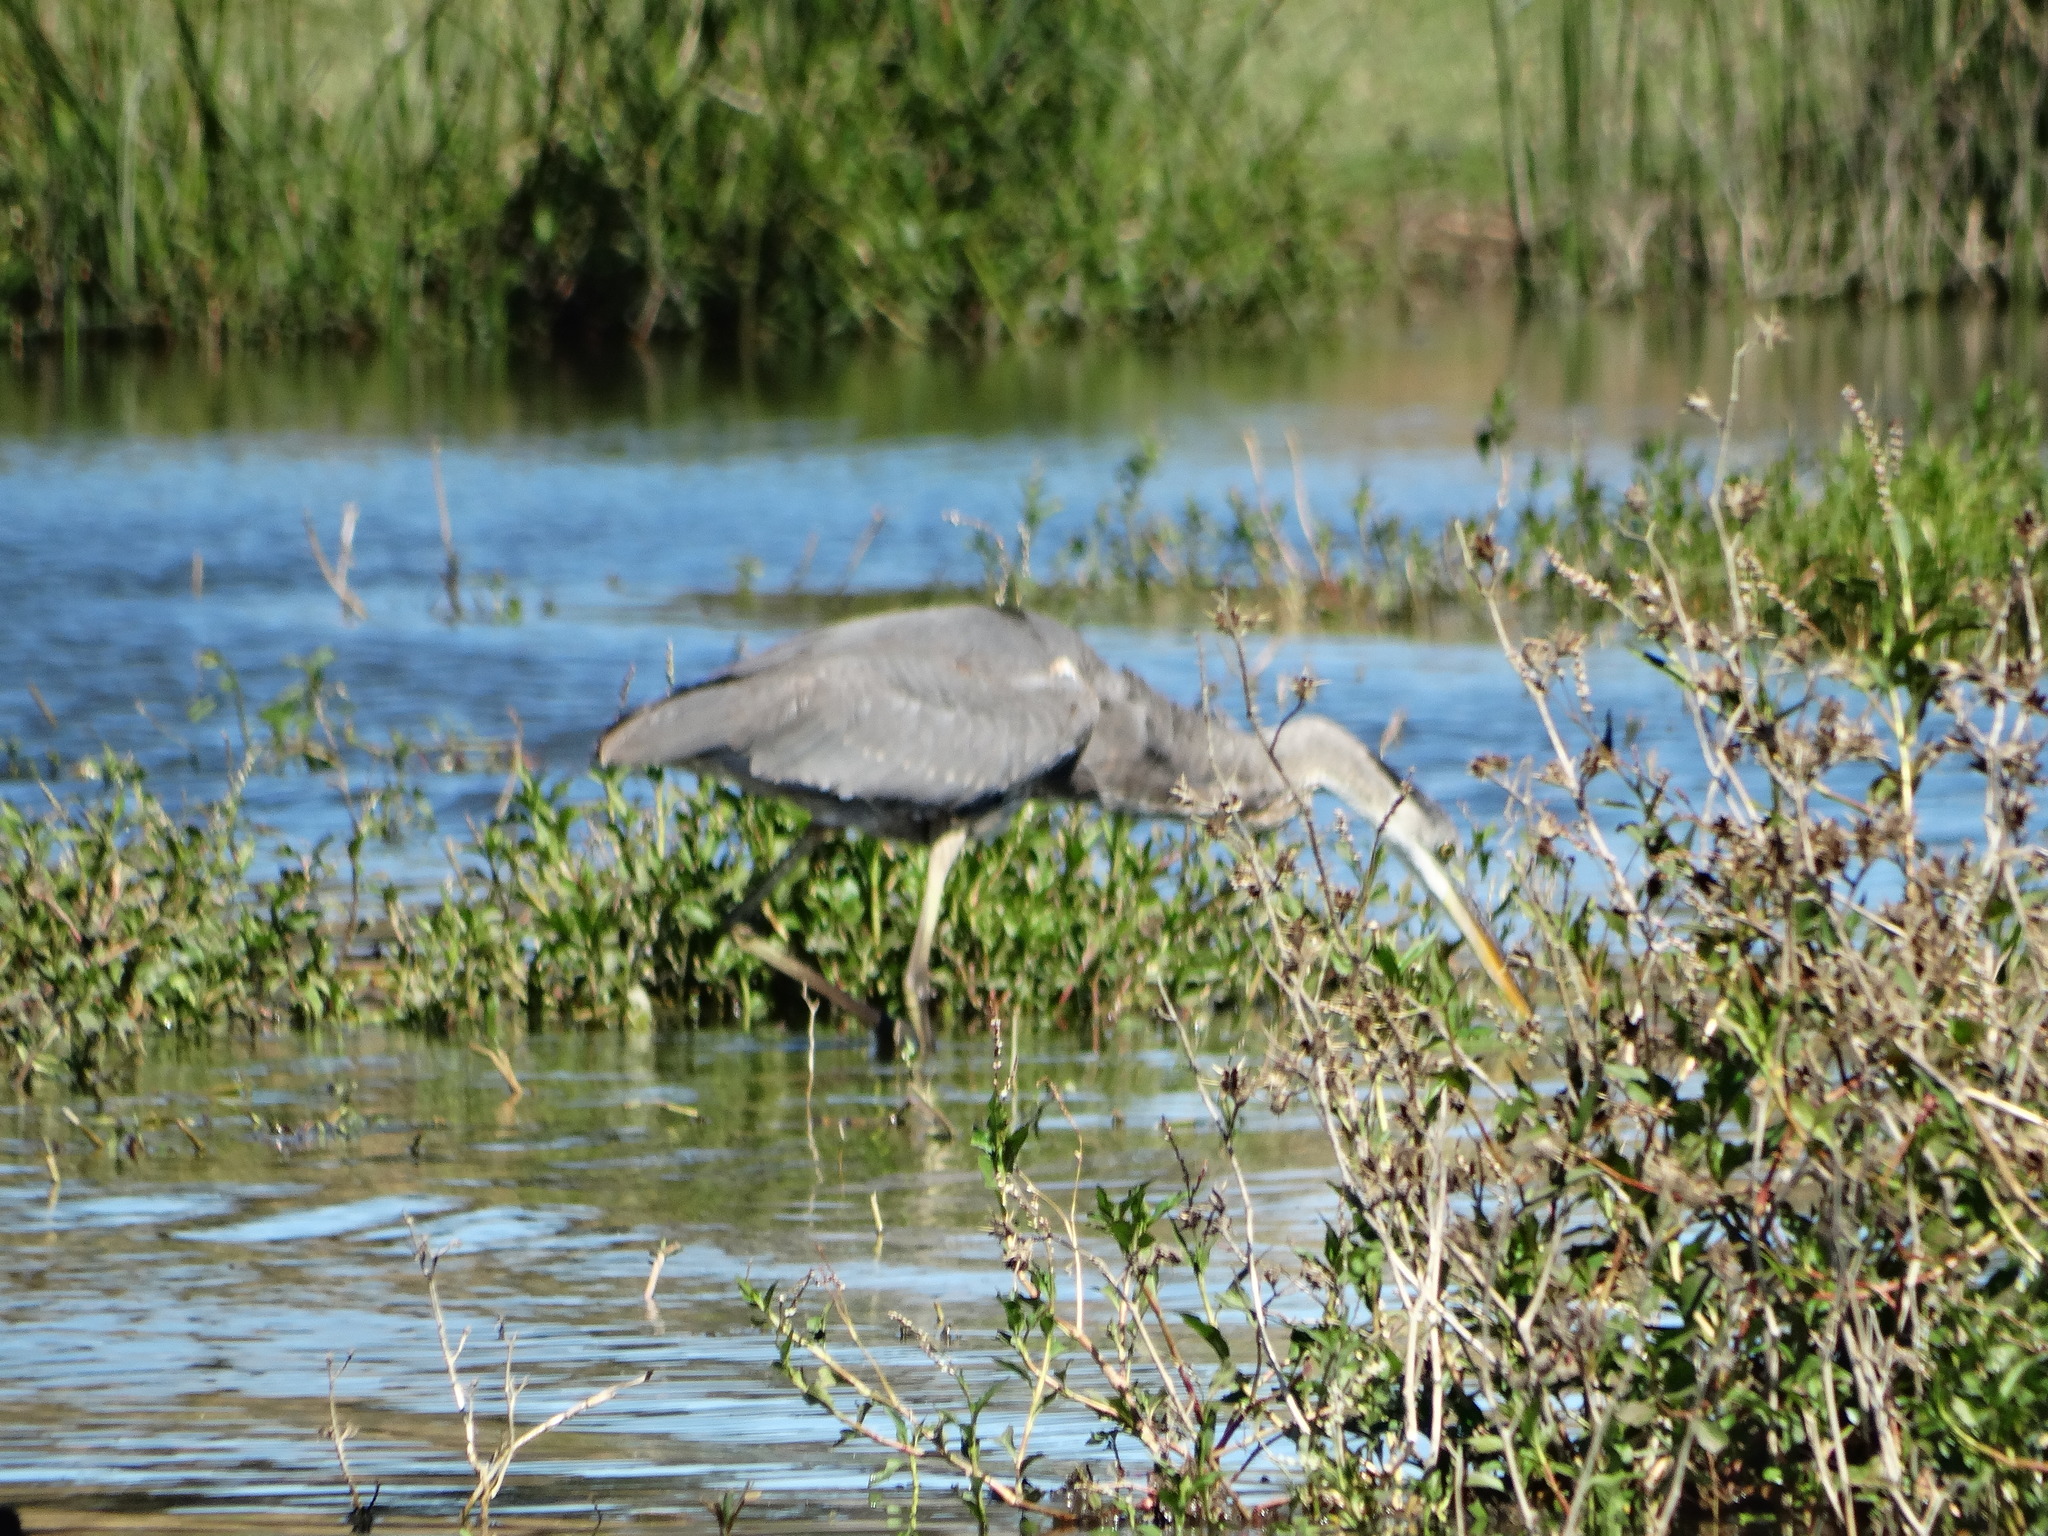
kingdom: Animalia
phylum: Chordata
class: Aves
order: Pelecaniformes
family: Ardeidae
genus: Ardea
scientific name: Ardea herodias
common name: Great blue heron
